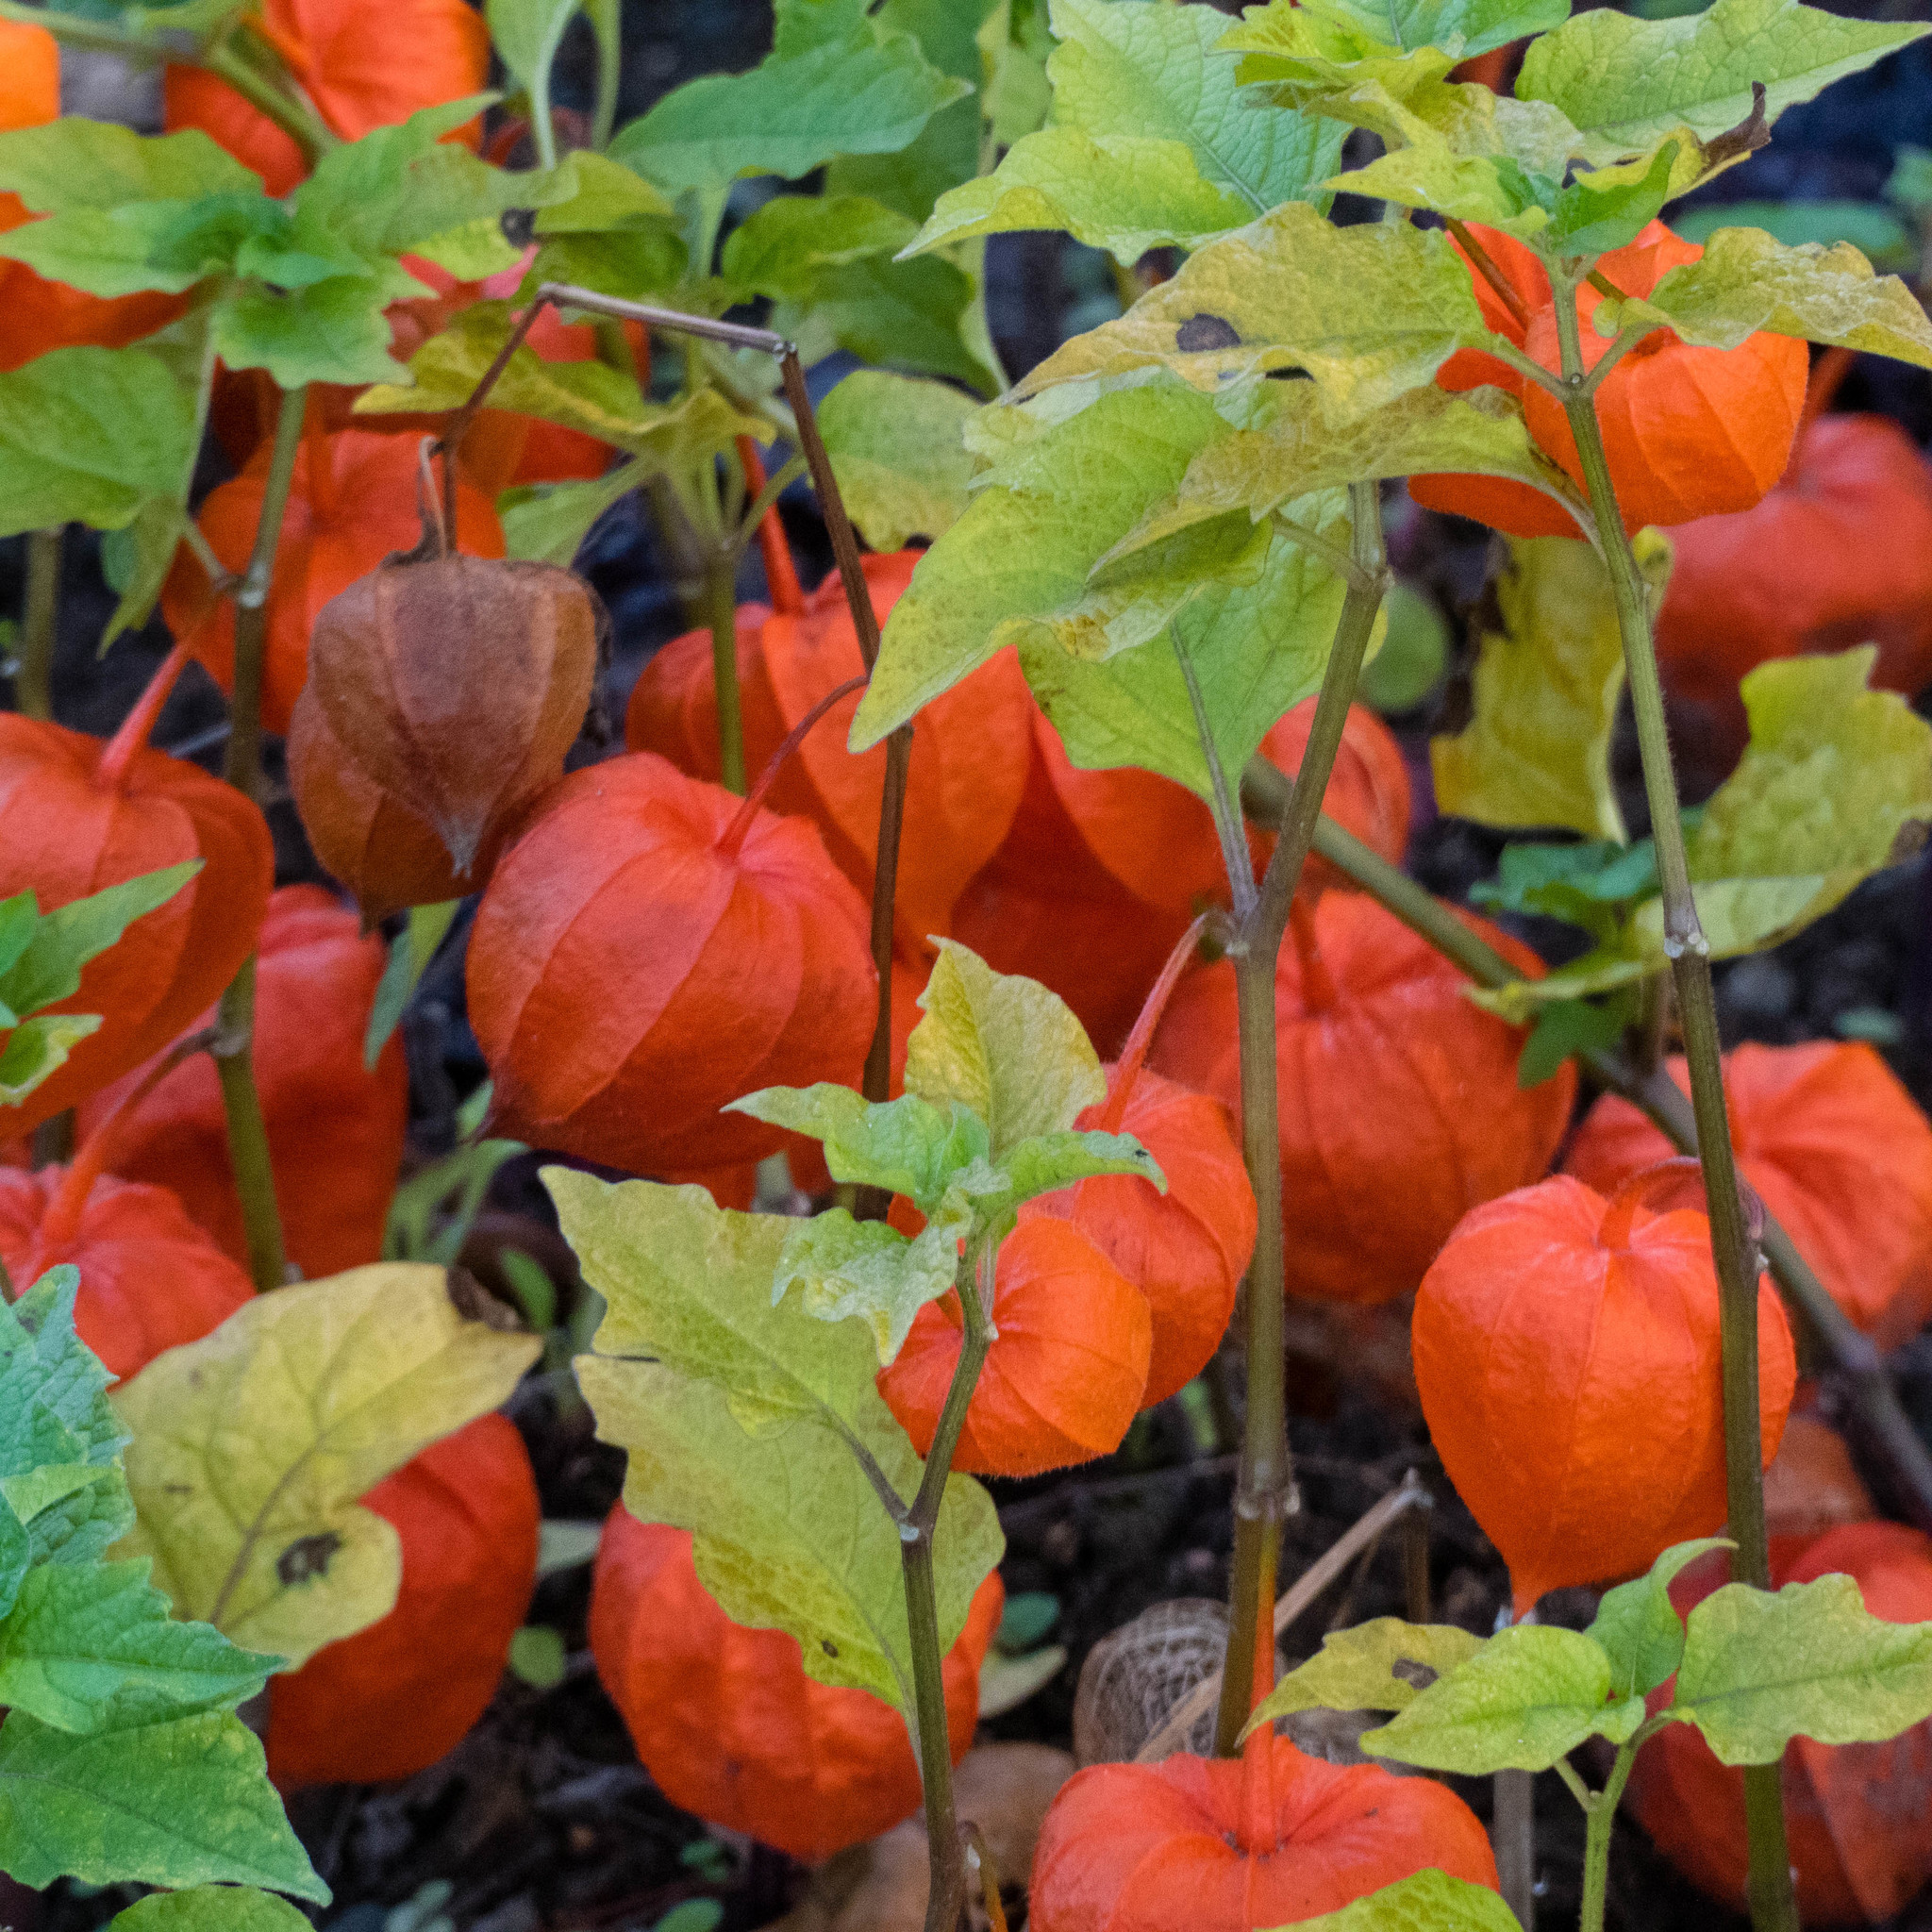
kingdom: Plantae
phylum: Tracheophyta
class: Magnoliopsida
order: Solanales
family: Solanaceae
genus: Alkekengi
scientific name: Alkekengi officinarum
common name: Japanese-lantern
